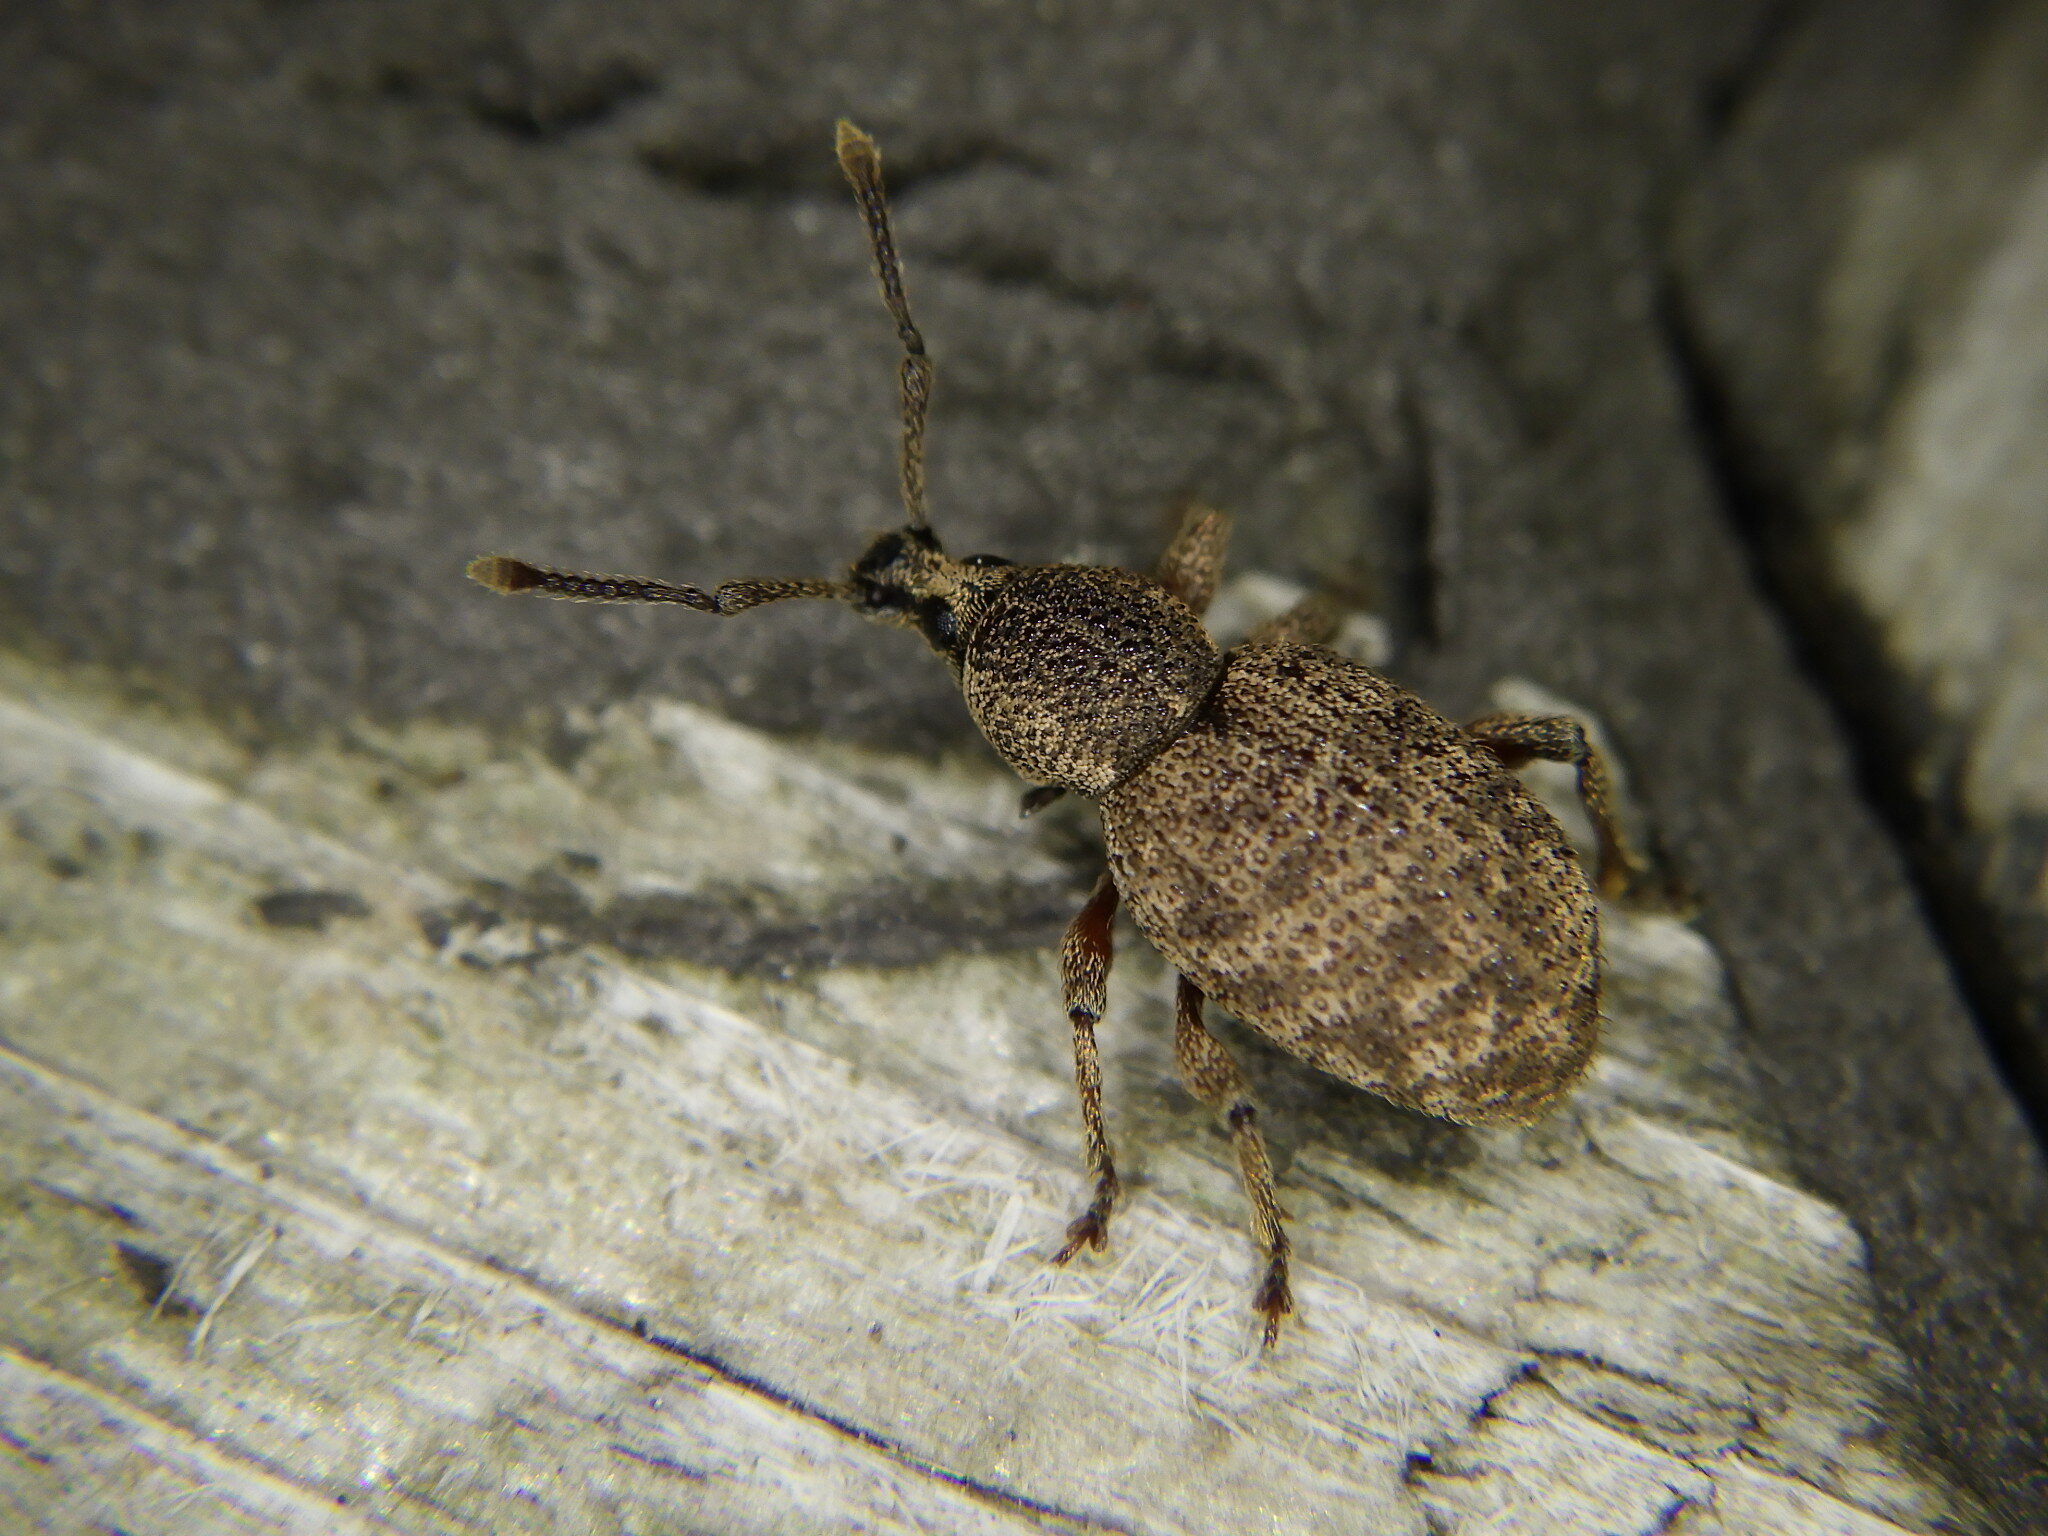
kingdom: Animalia
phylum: Arthropoda
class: Insecta
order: Coleoptera
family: Curculionidae
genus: Otiorhynchus
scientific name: Otiorhynchus singularis
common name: Clay-coloured weevil
